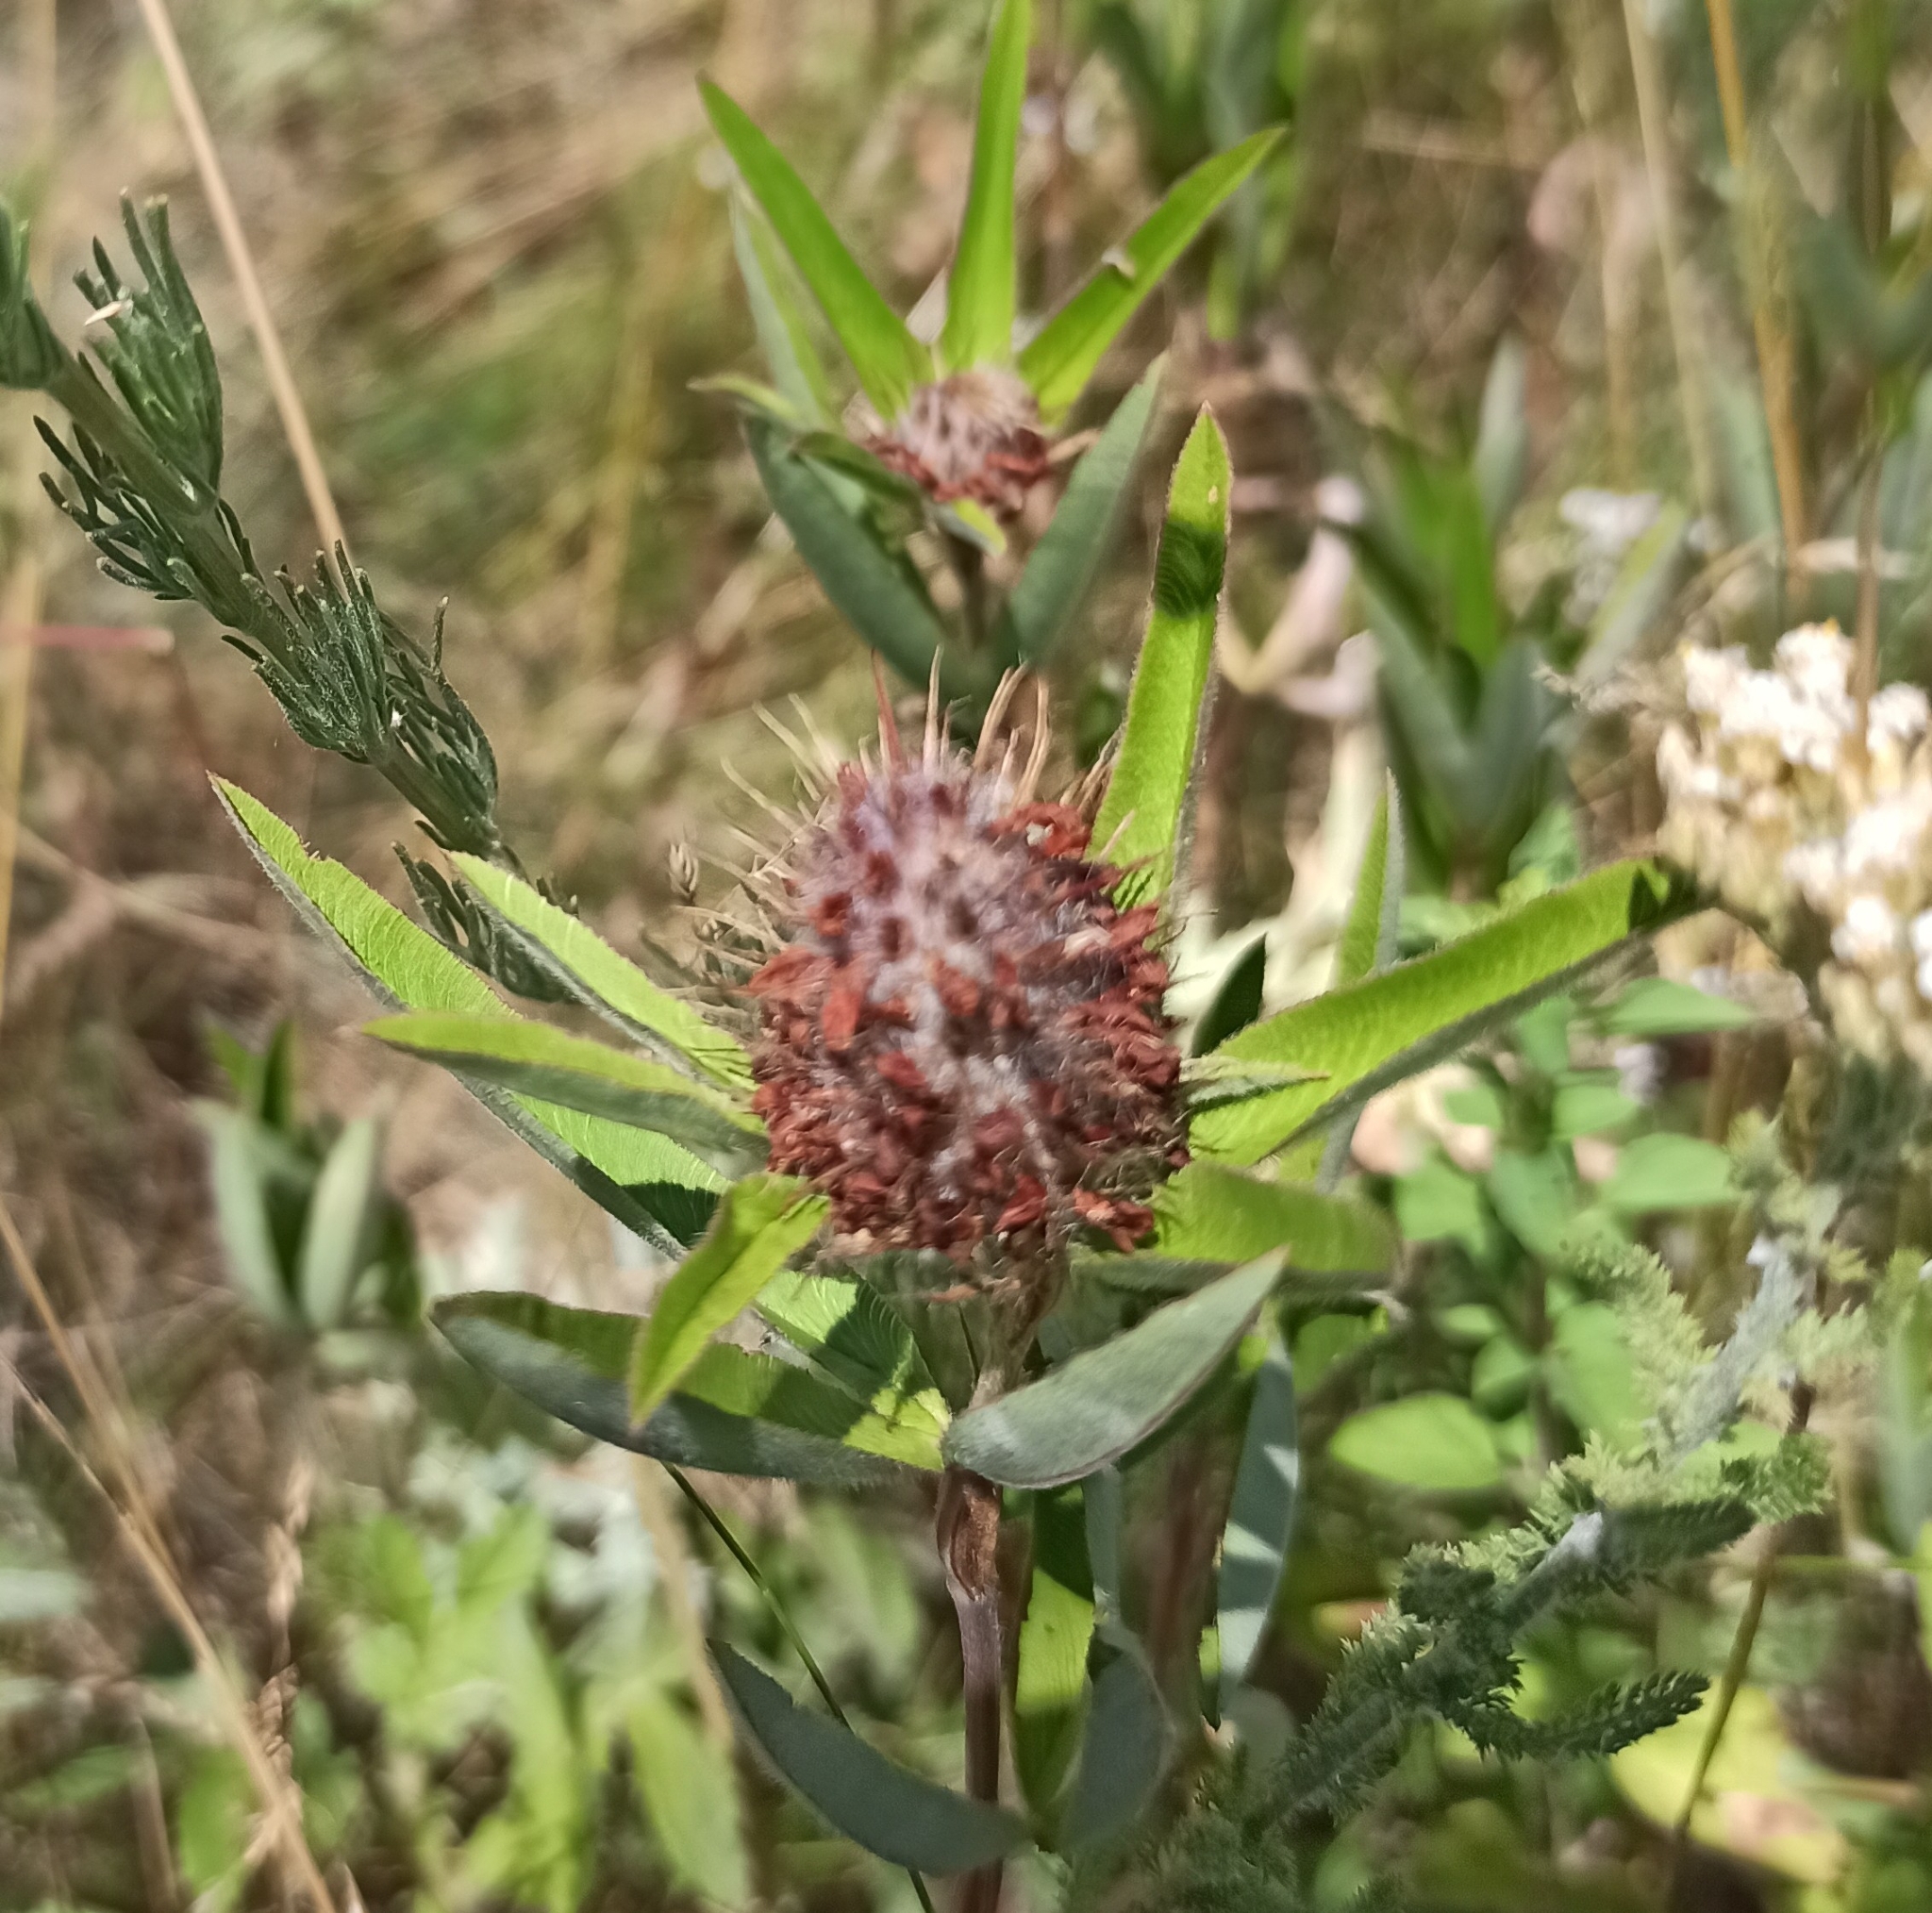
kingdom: Plantae
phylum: Tracheophyta
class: Magnoliopsida
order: Fabales
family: Fabaceae
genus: Trifolium
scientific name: Trifolium alpestre
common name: Owl-head clover
